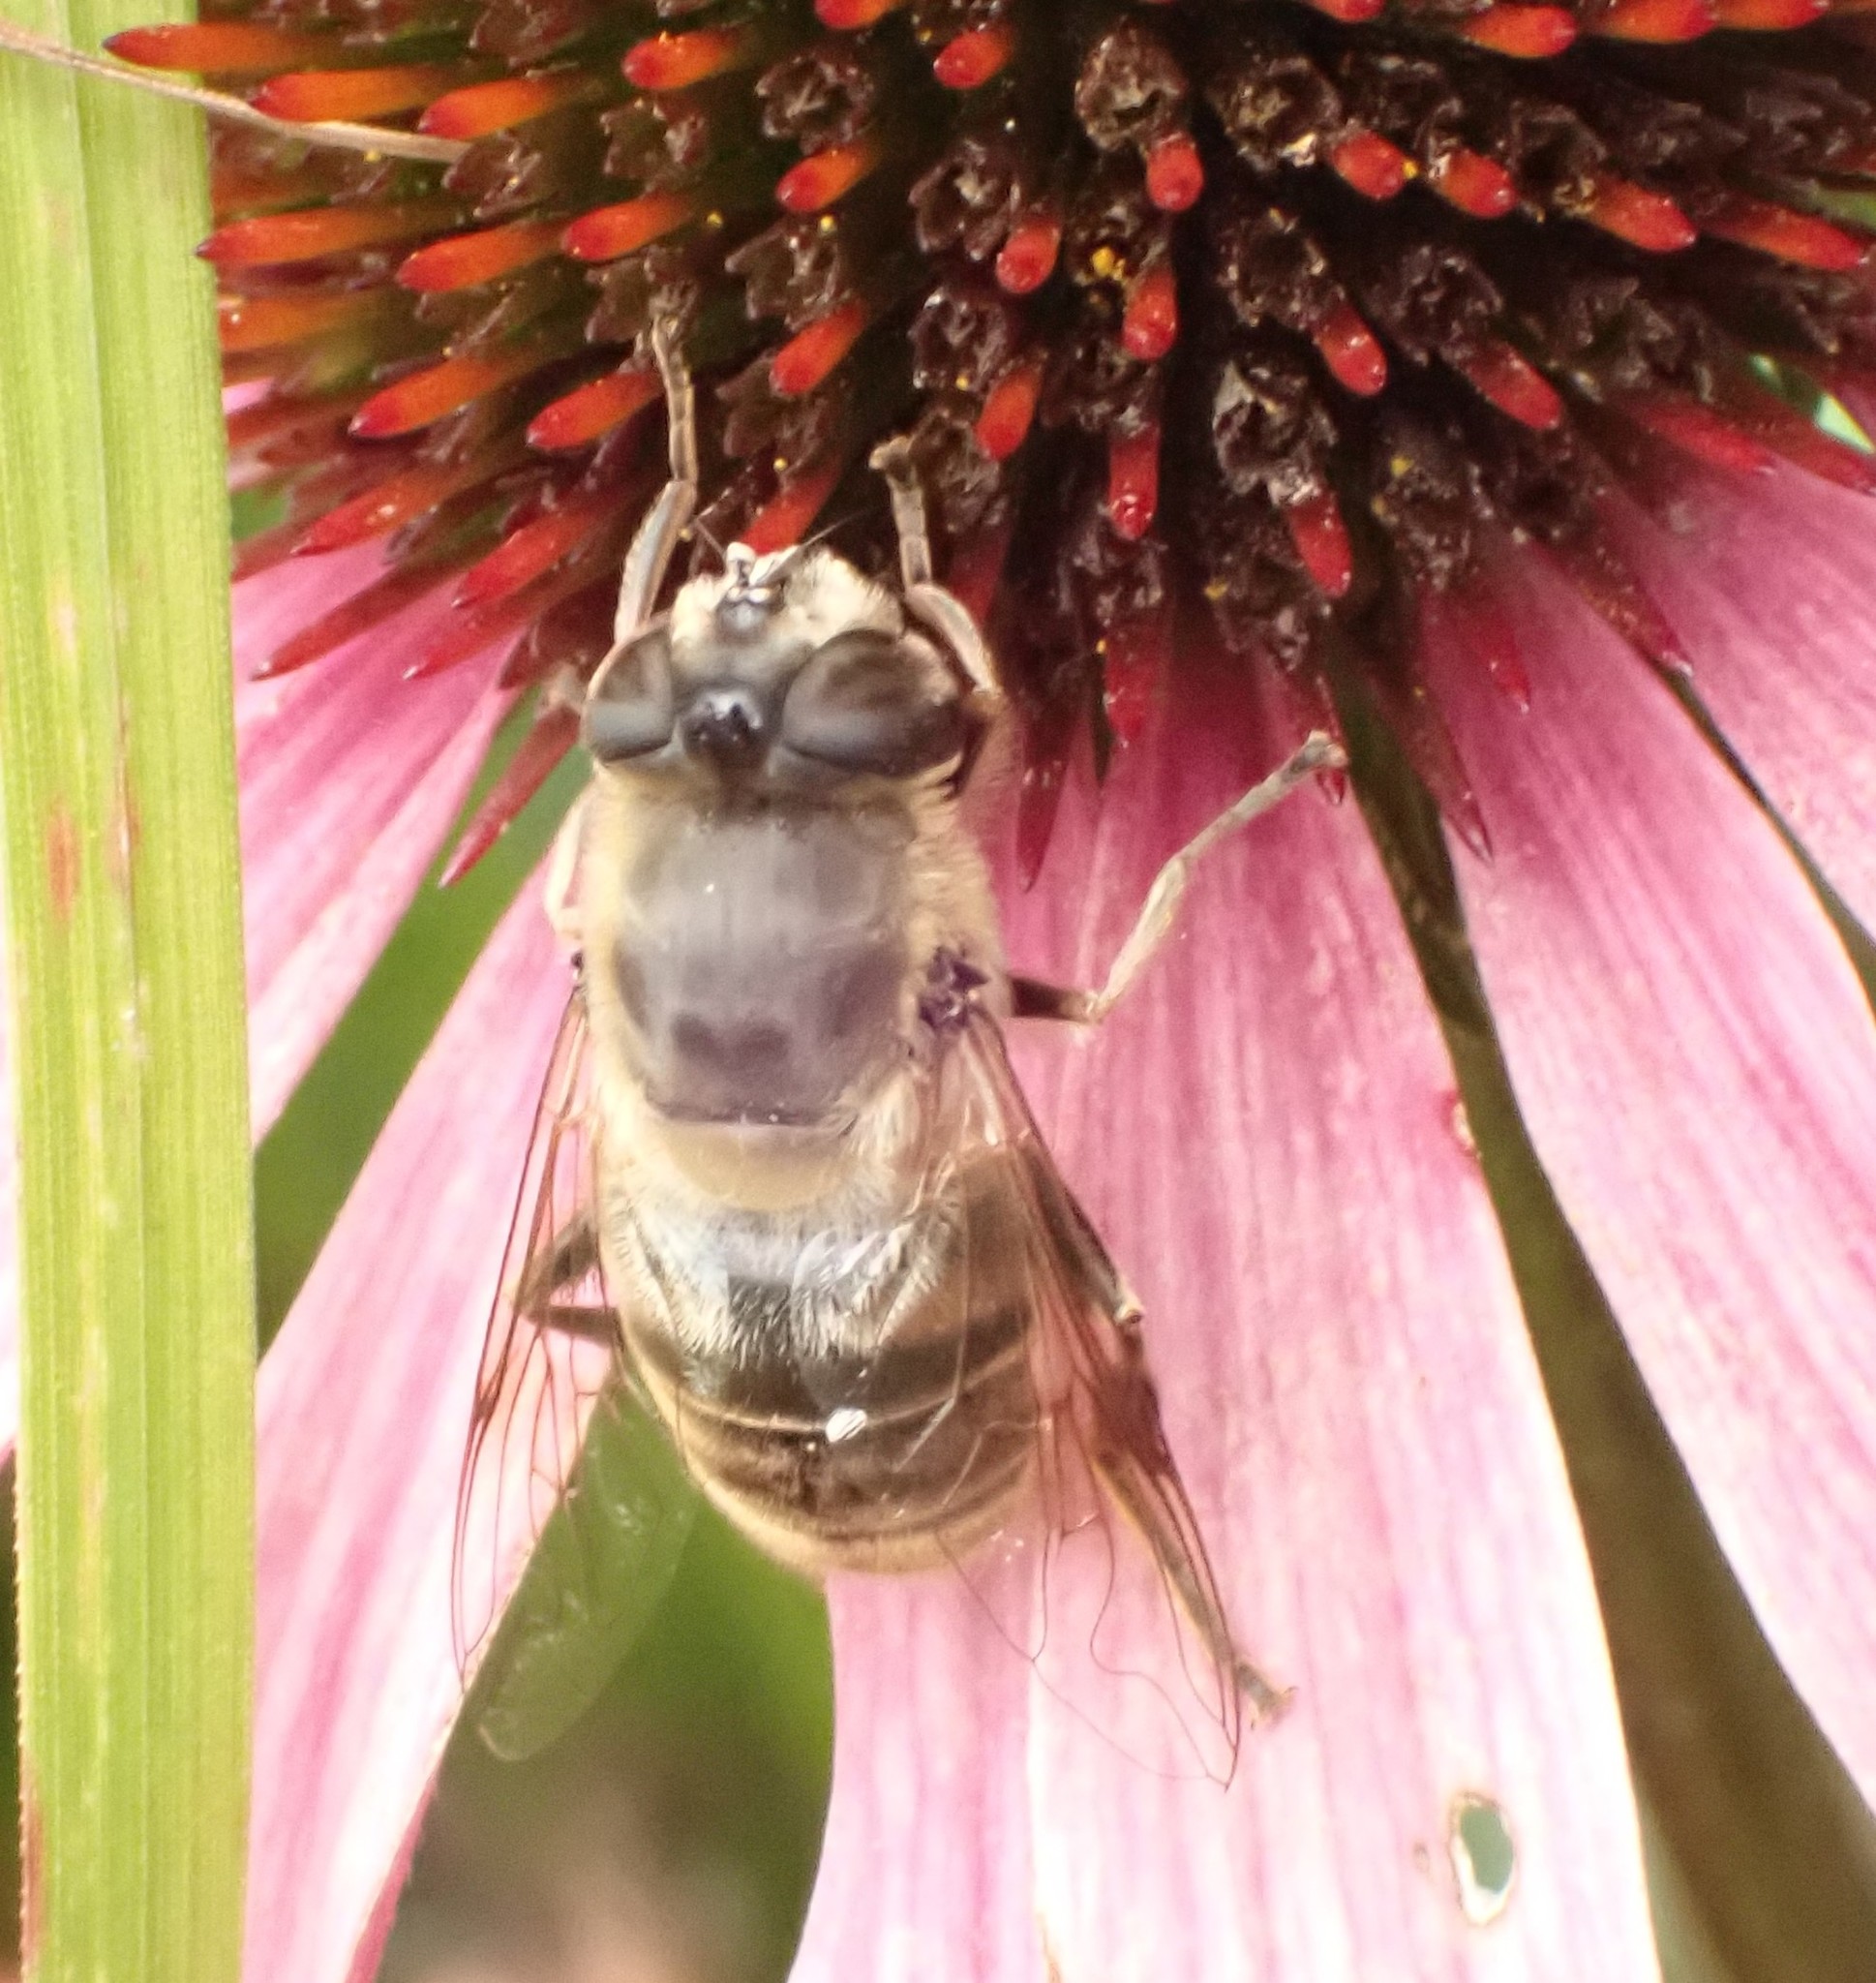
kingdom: Animalia
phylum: Arthropoda
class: Insecta
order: Diptera
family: Syrphidae
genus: Eristalis
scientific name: Eristalis tenax
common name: Drone fly
